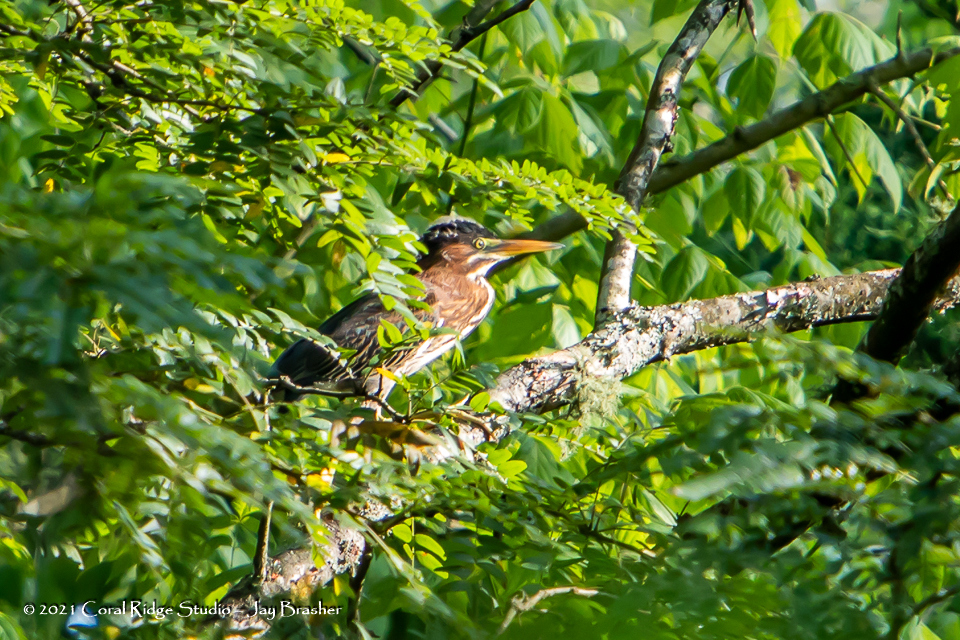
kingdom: Animalia
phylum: Chordata
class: Aves
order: Pelecaniformes
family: Ardeidae
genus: Butorides
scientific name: Butorides virescens
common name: Green heron
